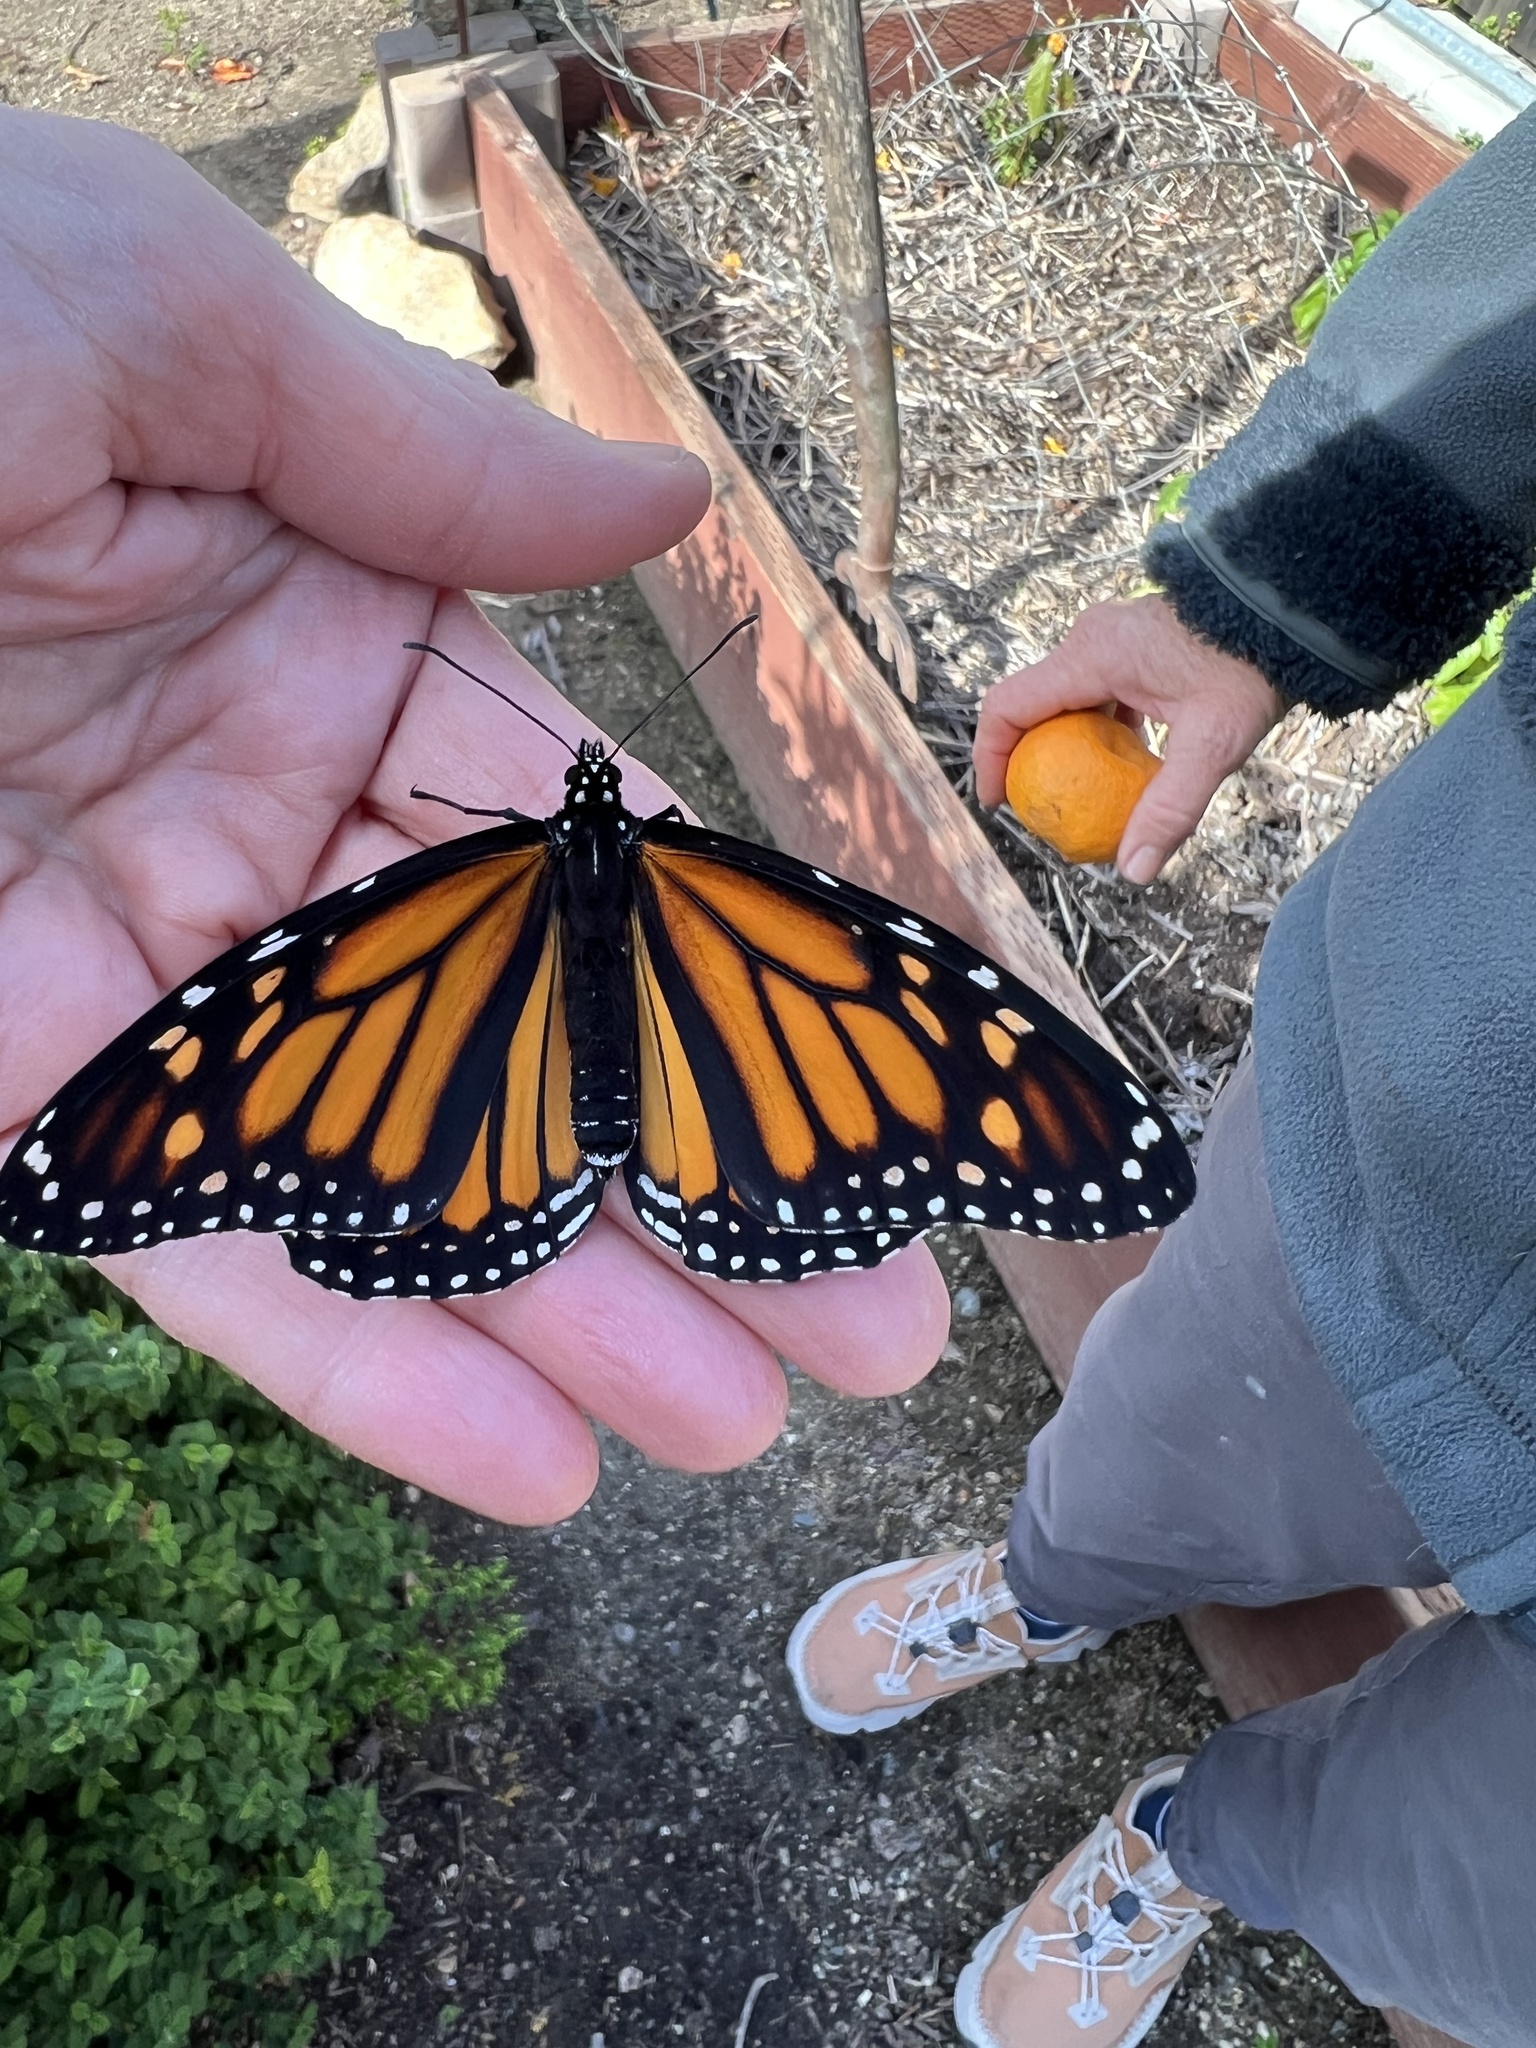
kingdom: Animalia
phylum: Arthropoda
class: Insecta
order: Lepidoptera
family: Nymphalidae
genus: Danaus
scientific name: Danaus plexippus
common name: Monarch
